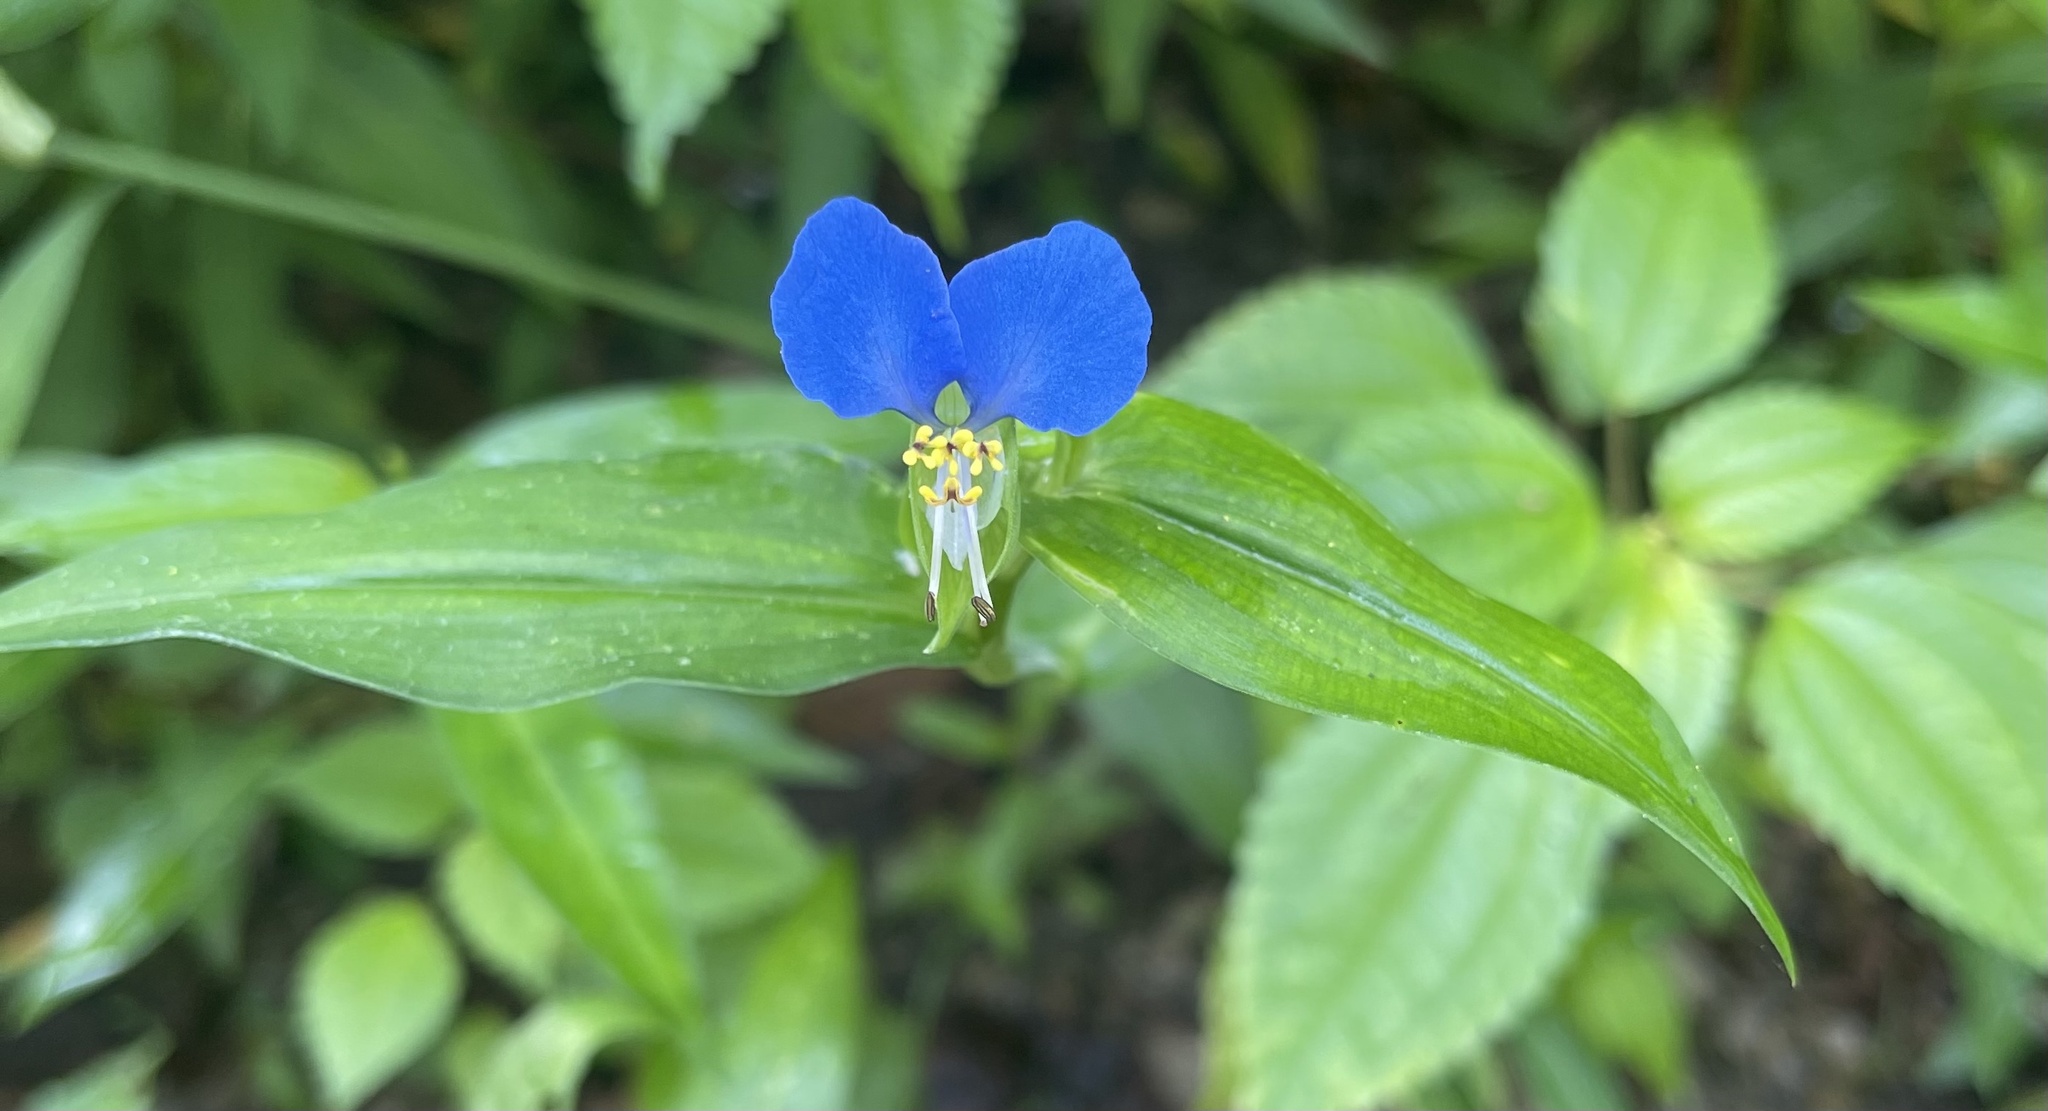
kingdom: Plantae
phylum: Tracheophyta
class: Liliopsida
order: Commelinales
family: Commelinaceae
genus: Commelina
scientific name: Commelina communis
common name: Asiatic dayflower
